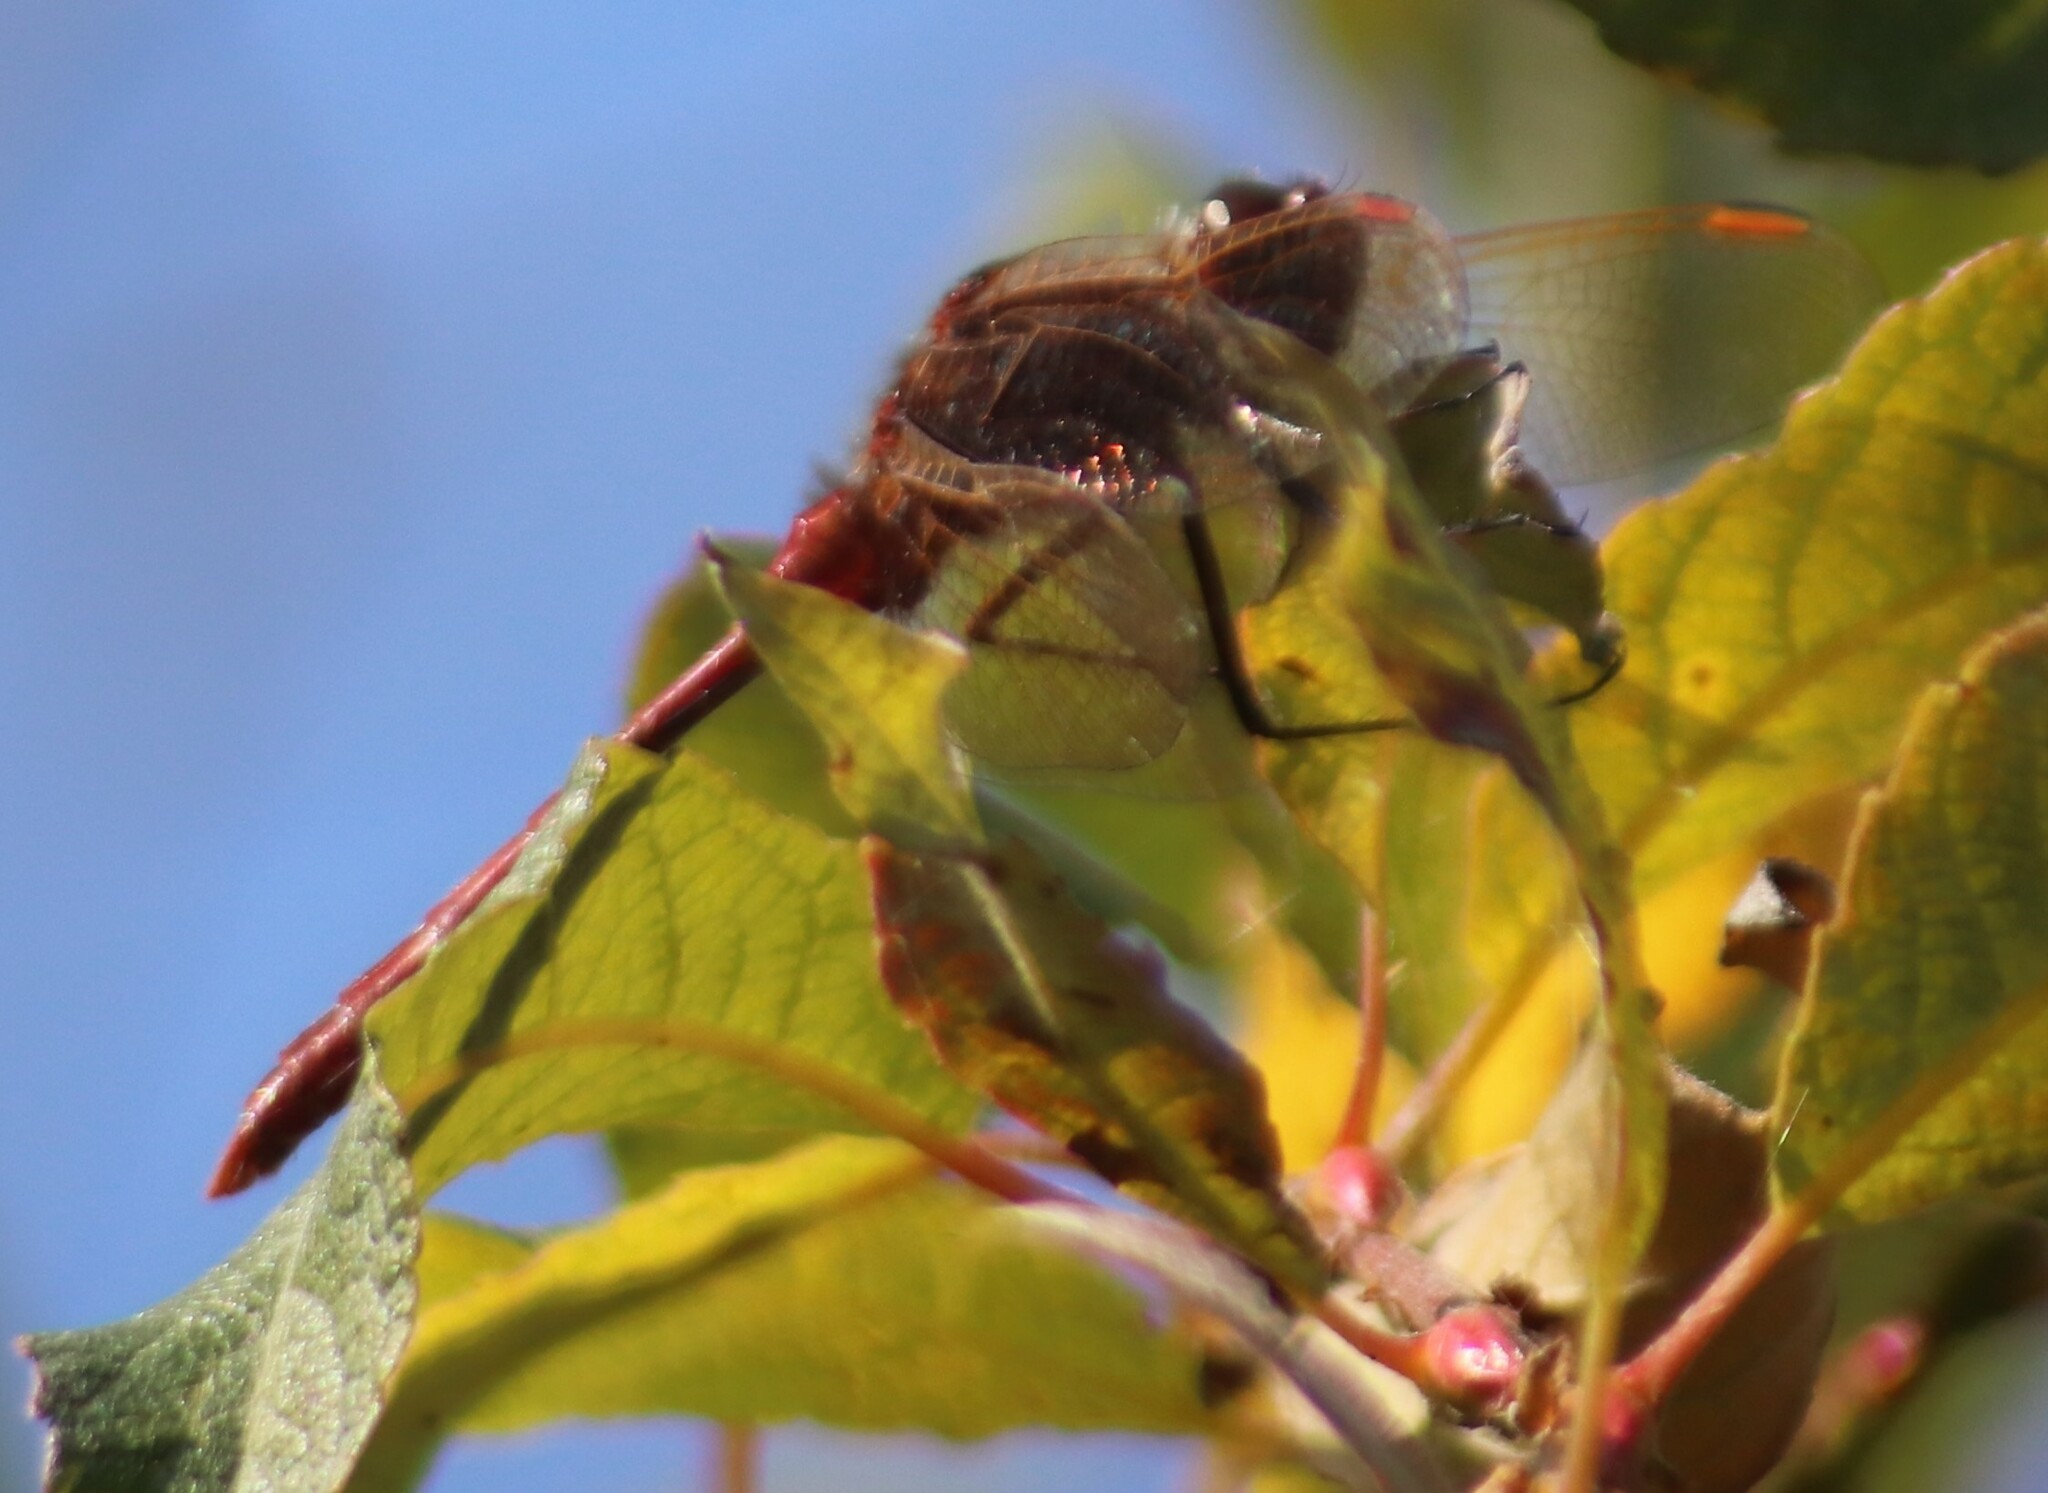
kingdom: Animalia
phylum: Arthropoda
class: Insecta
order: Odonata
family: Libellulidae
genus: Sympetrum
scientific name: Sympetrum costiferum
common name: Saffron-winged meadowhawk
